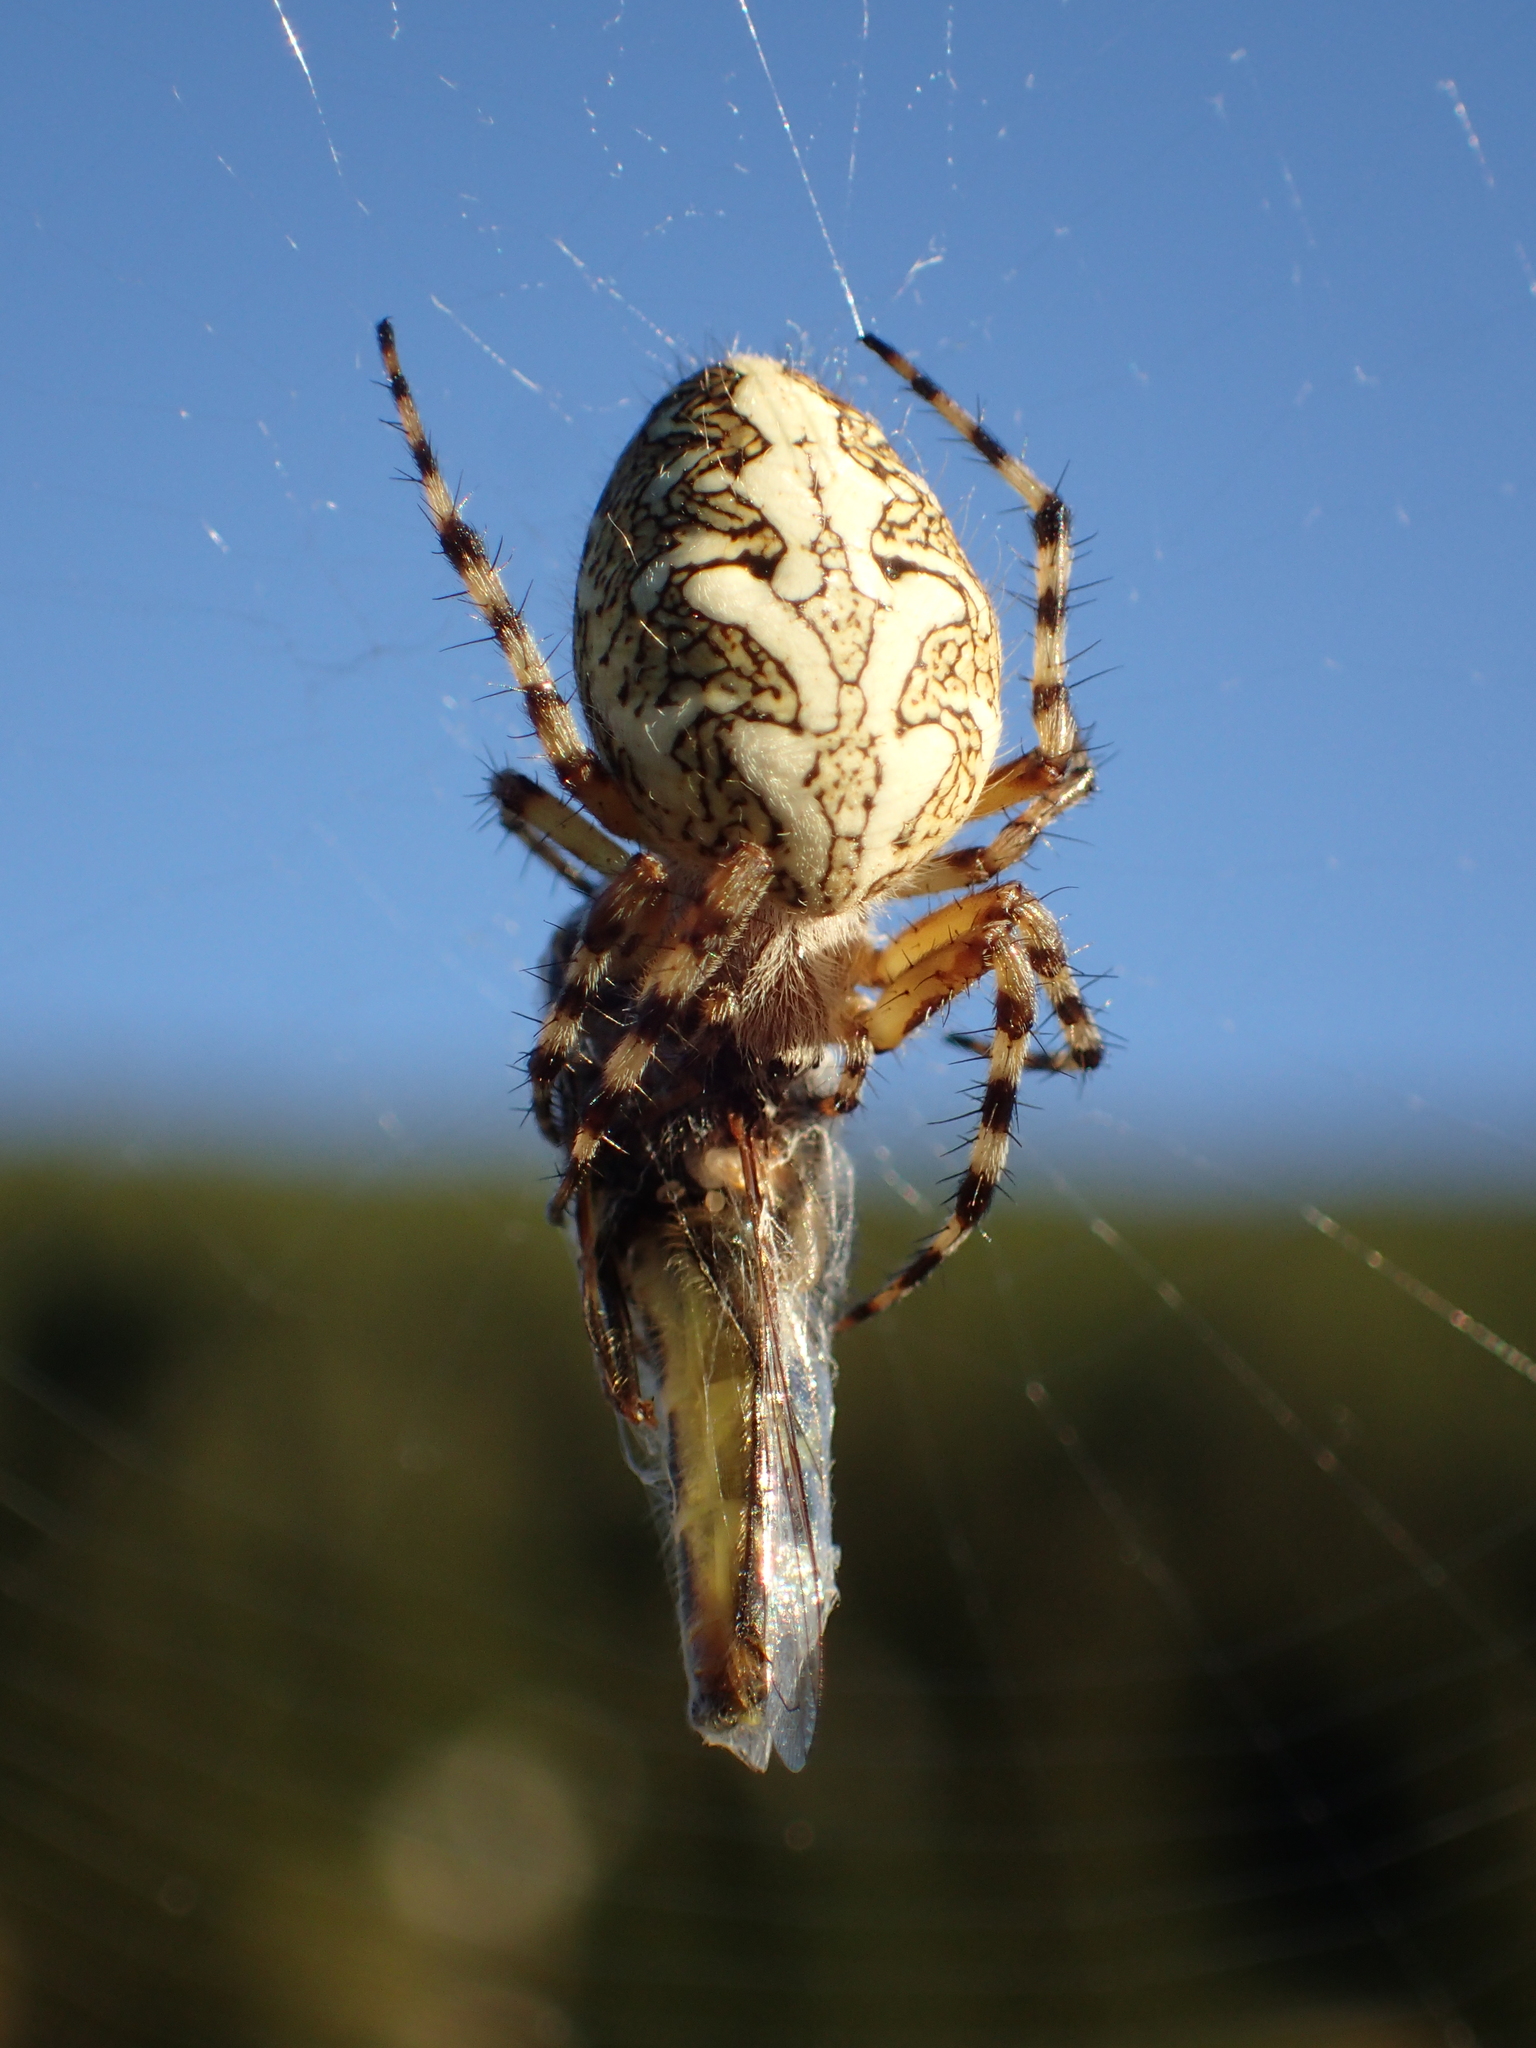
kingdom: Animalia
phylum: Arthropoda
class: Arachnida
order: Araneae
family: Araneidae
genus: Aculepeira
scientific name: Aculepeira ceropegia
